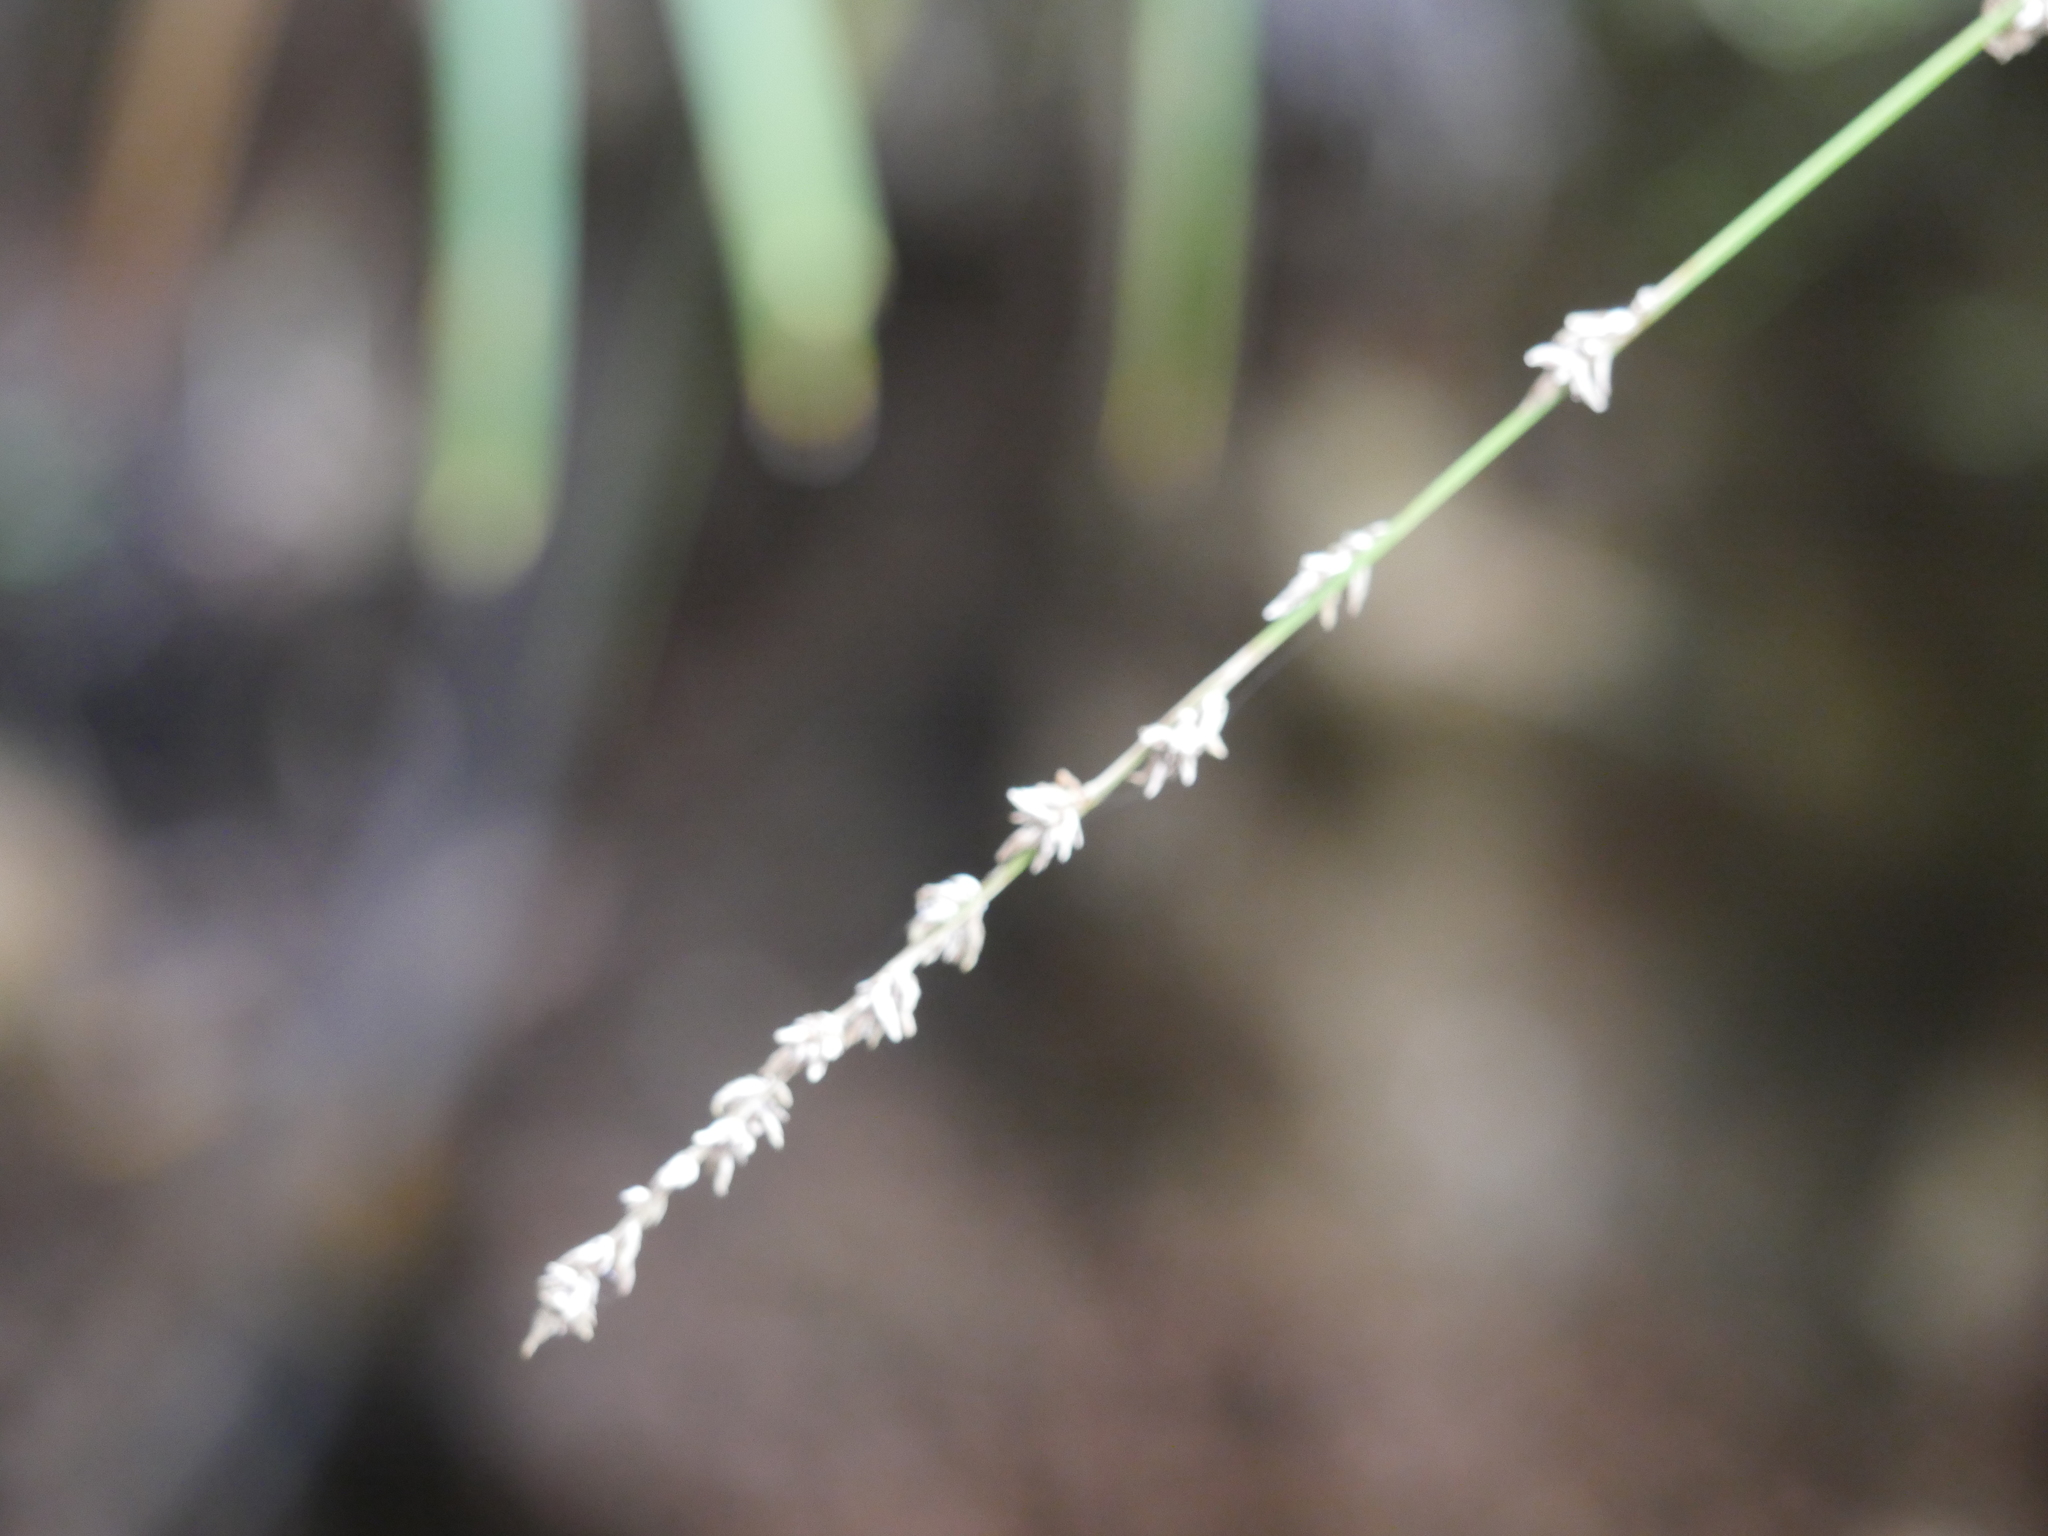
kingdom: Plantae
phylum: Tracheophyta
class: Liliopsida
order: Poales
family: Cyperaceae
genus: Carex
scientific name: Carex virgata
